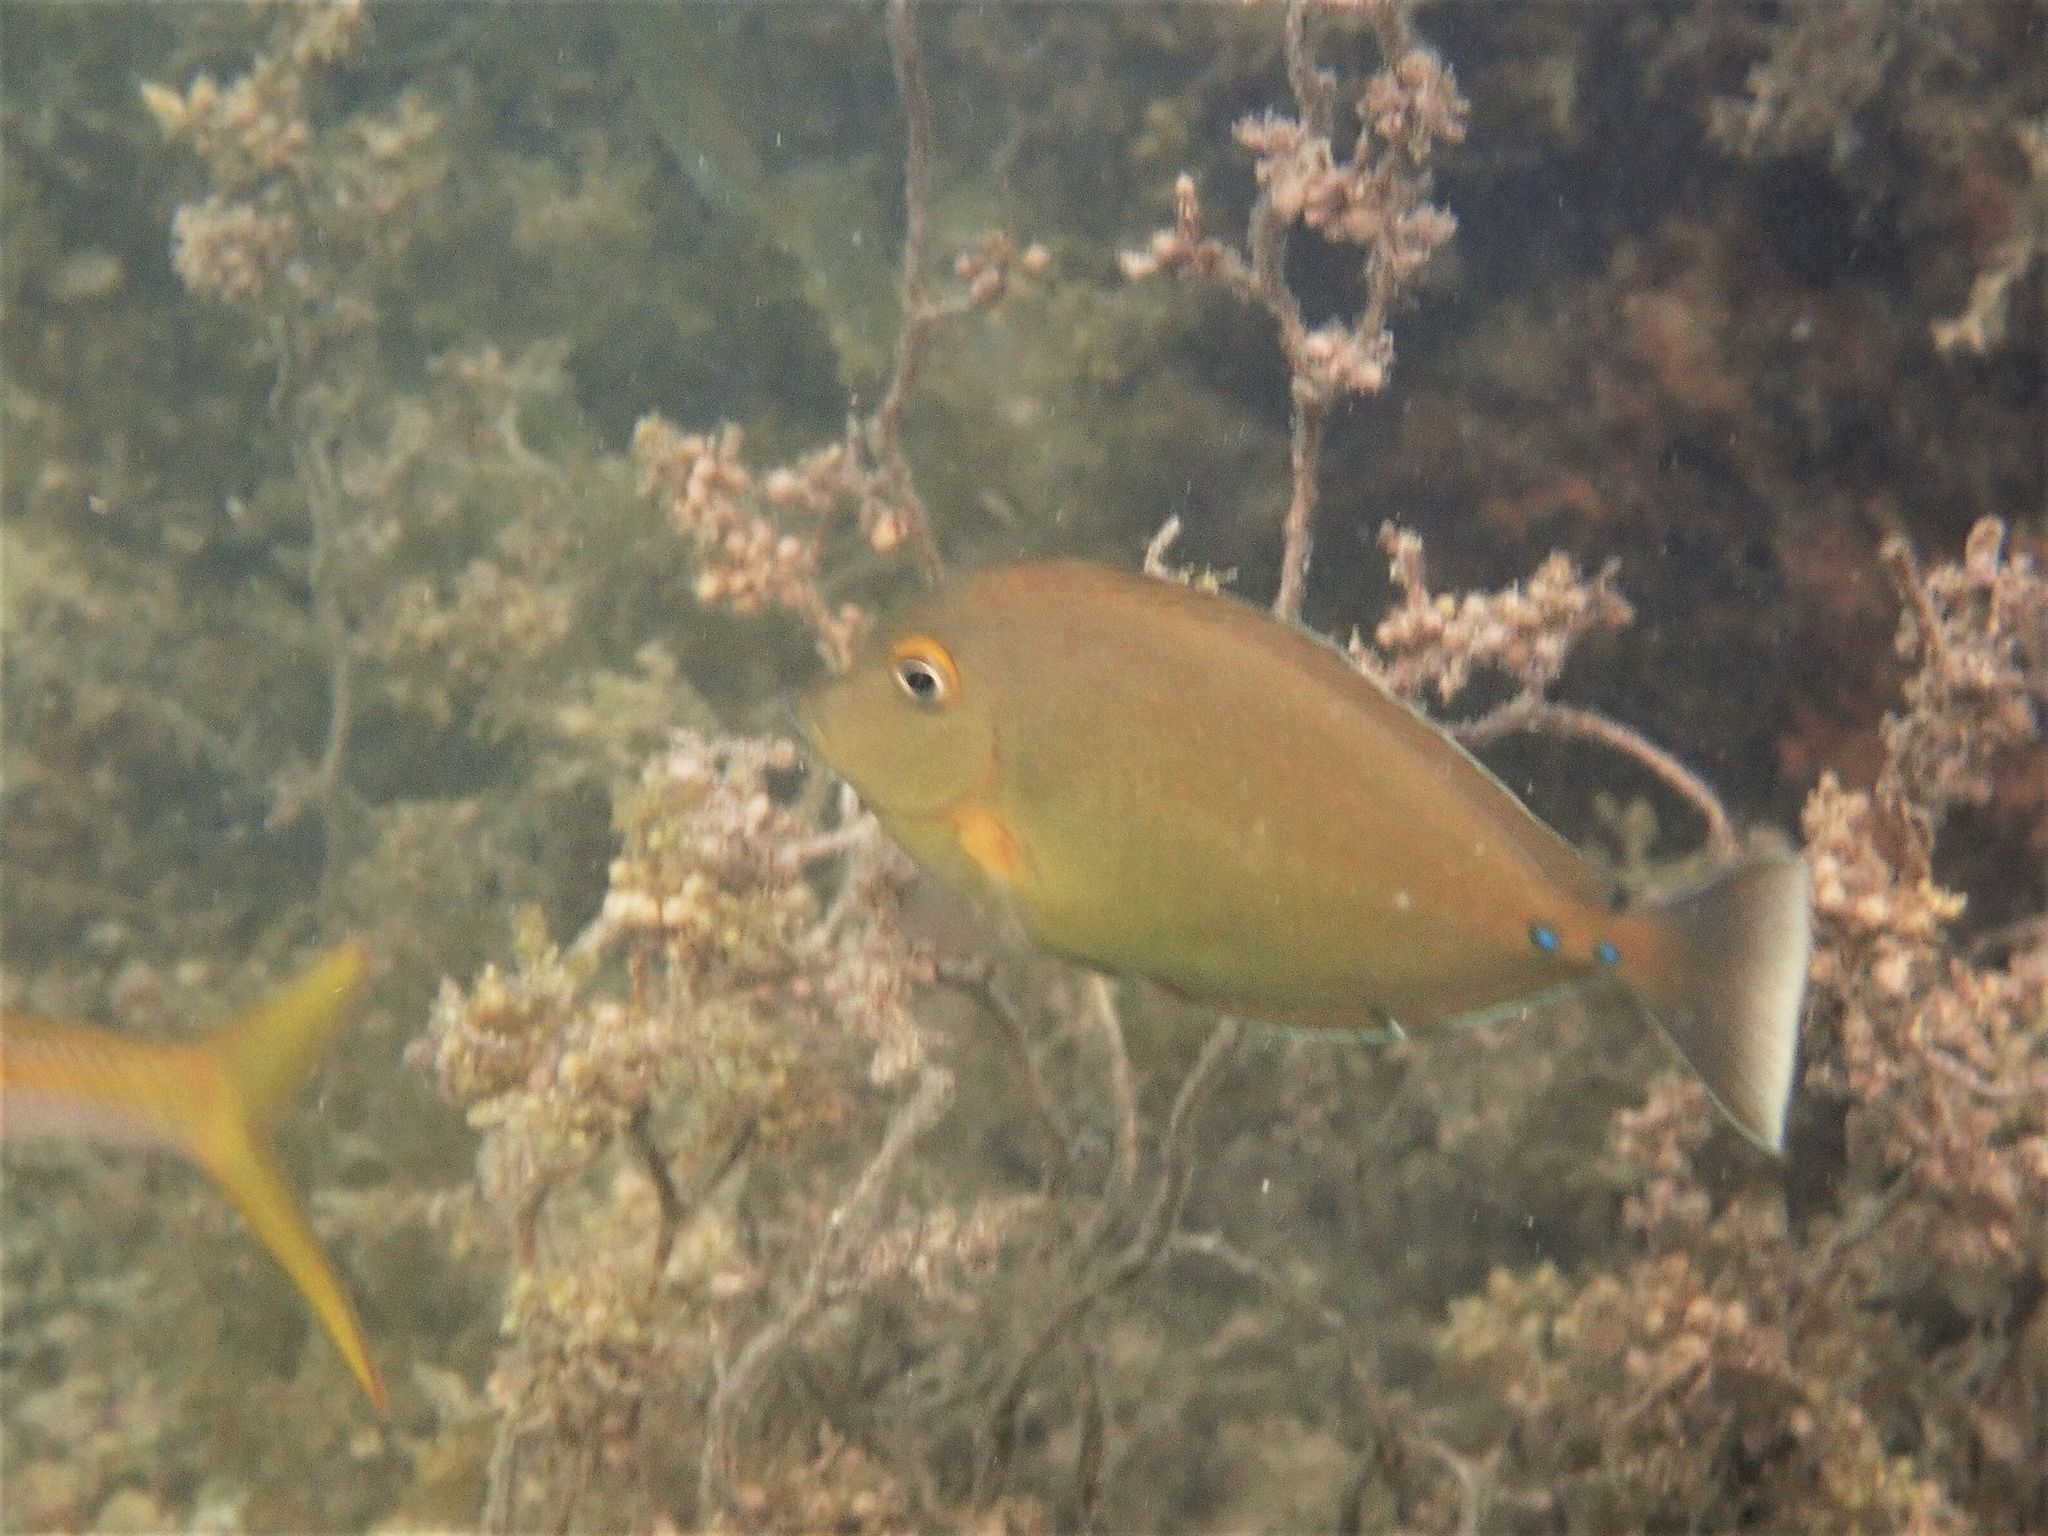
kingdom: Animalia
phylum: Chordata
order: Perciformes
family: Acanthuridae
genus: Naso
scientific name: Naso unicornis
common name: Bluespine unicornfish
